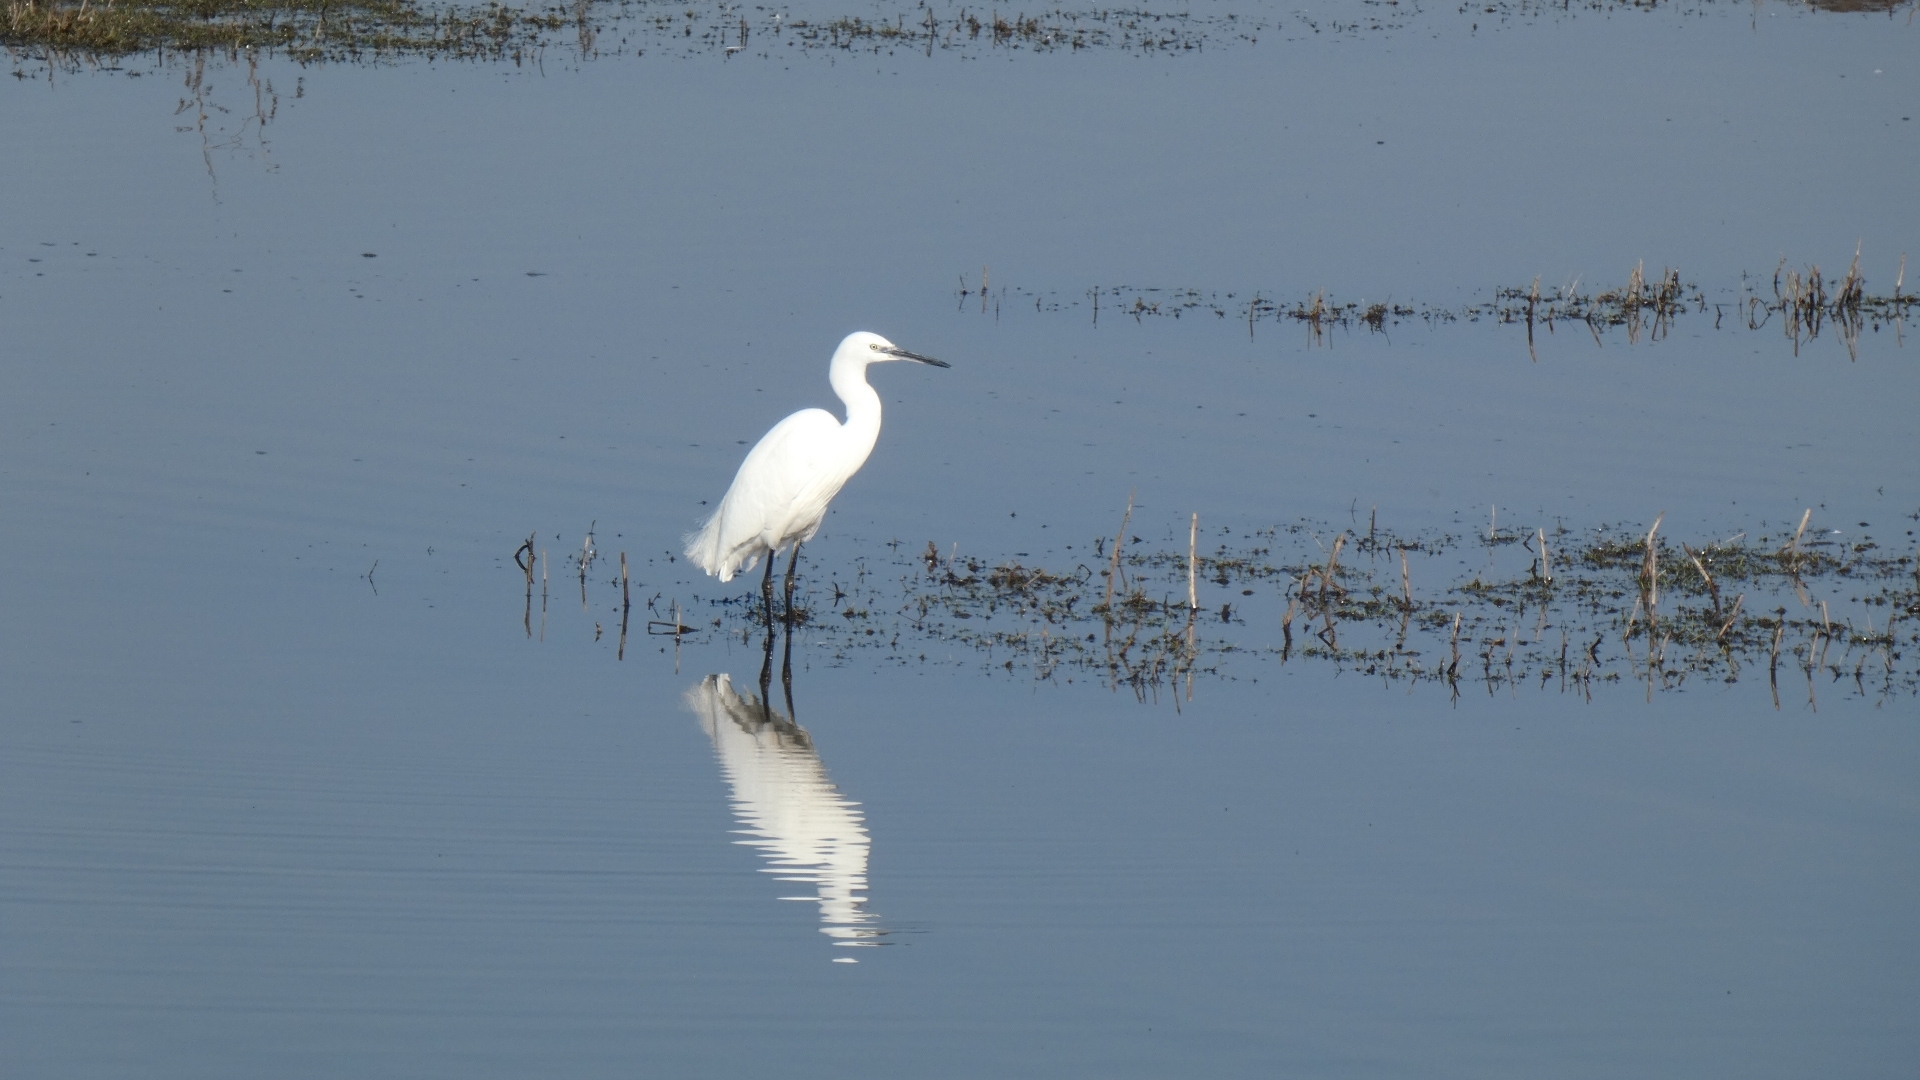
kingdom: Animalia
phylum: Chordata
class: Aves
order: Pelecaniformes
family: Ardeidae
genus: Egretta
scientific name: Egretta garzetta
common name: Little egret
